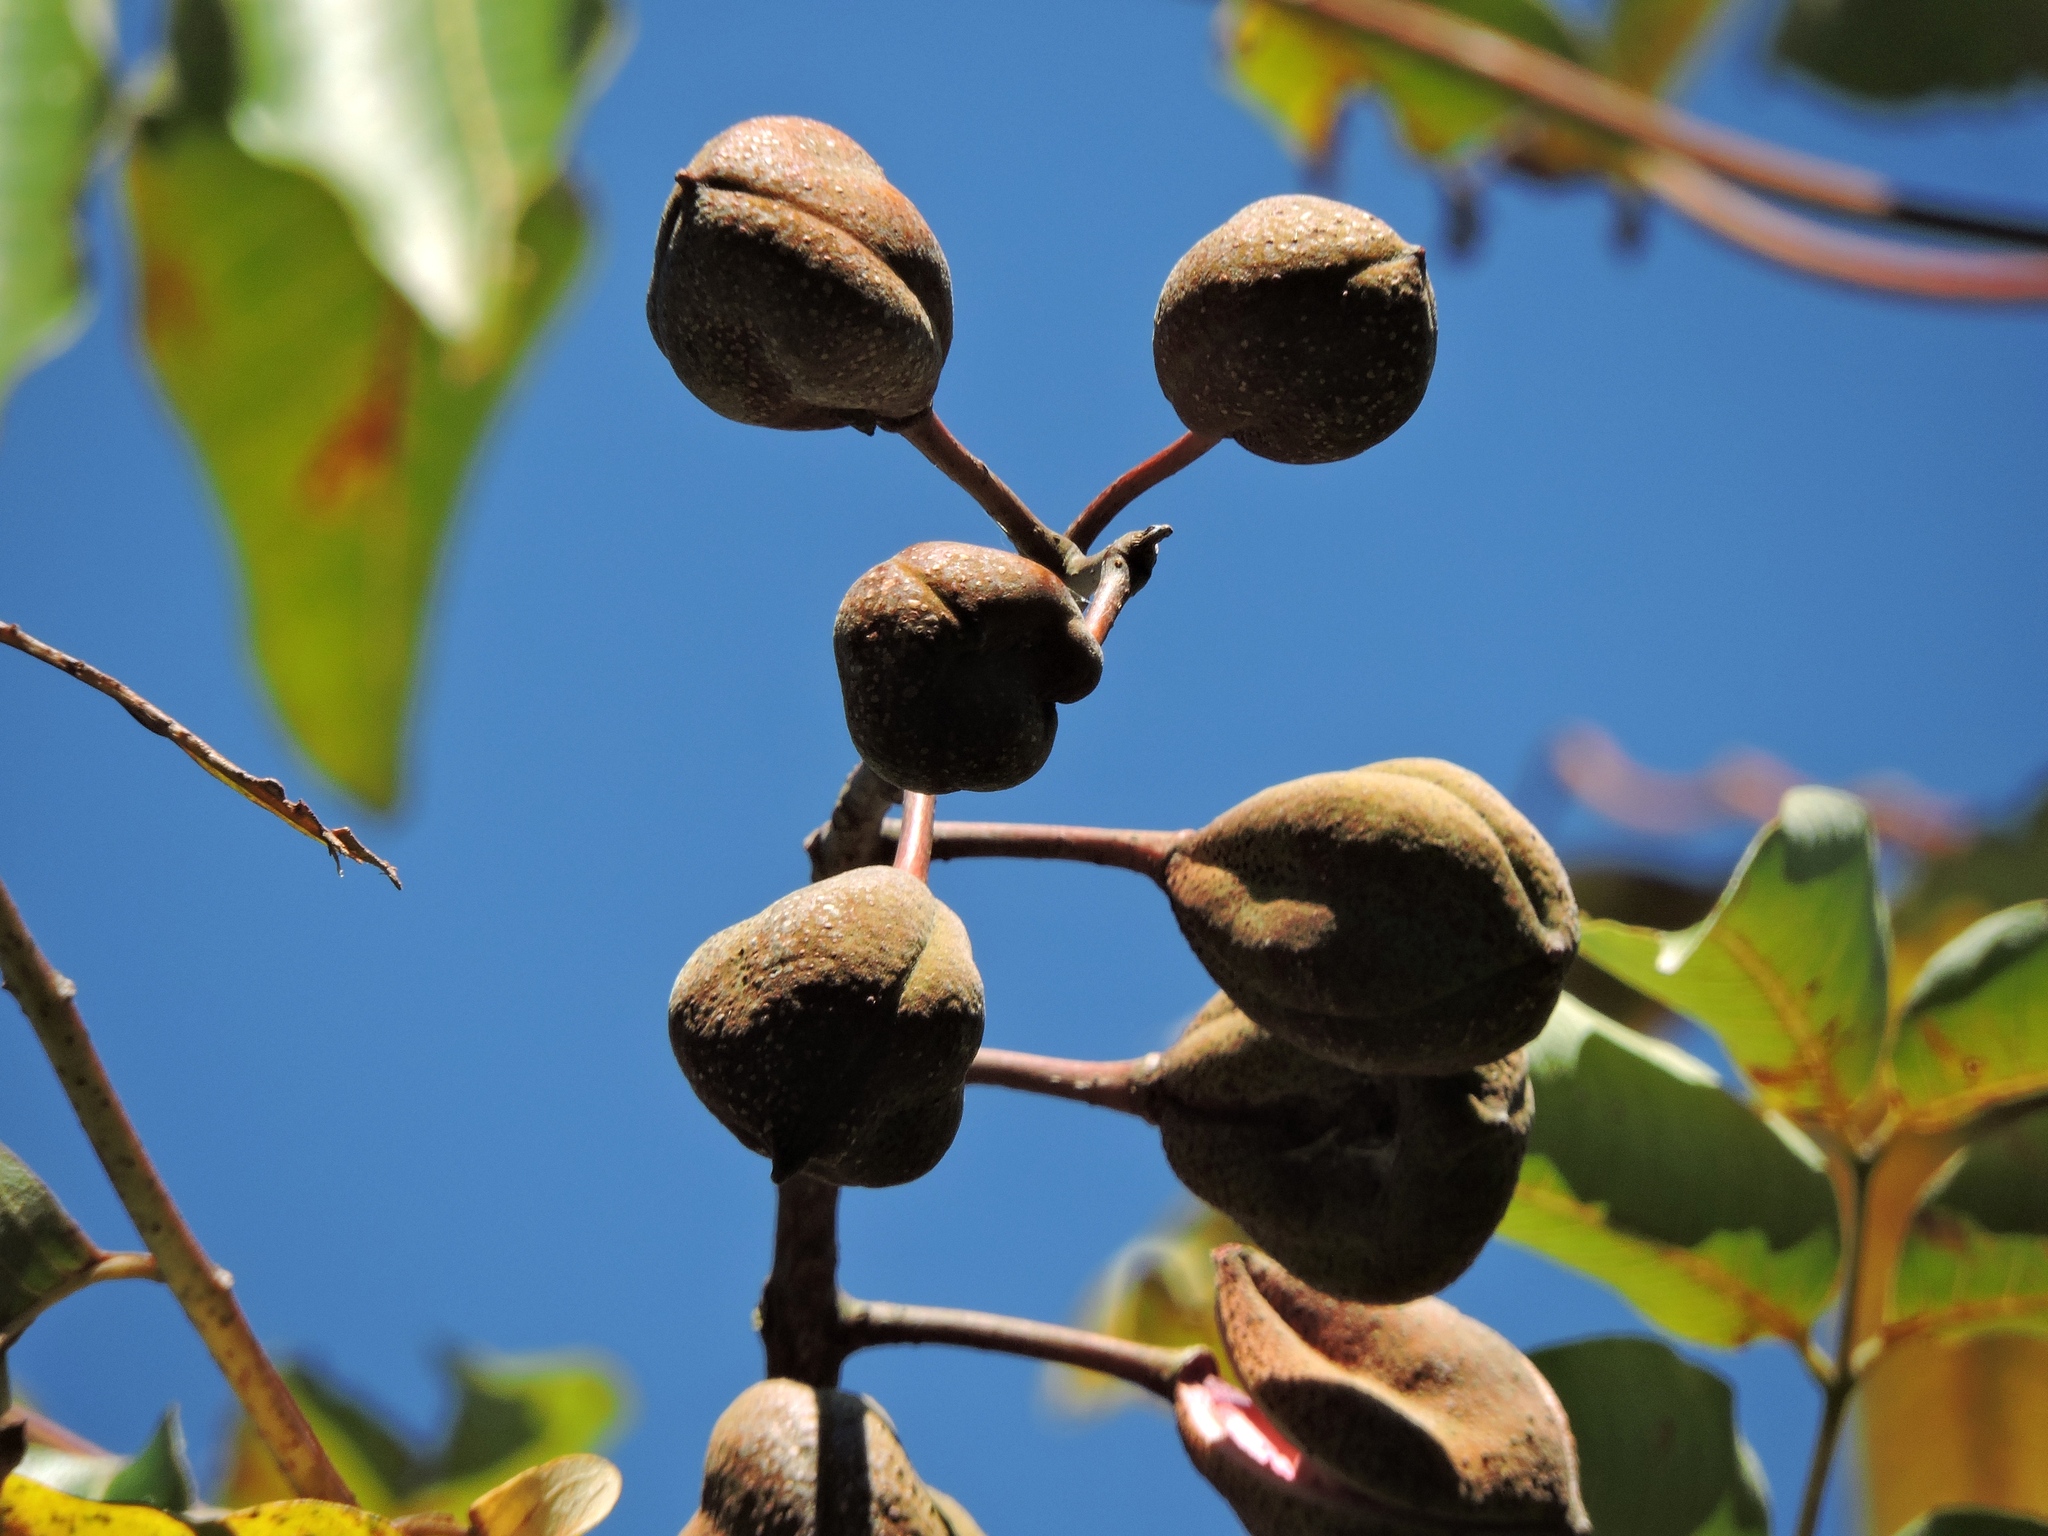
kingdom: Plantae
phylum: Tracheophyta
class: Magnoliopsida
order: Brassicales
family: Akaniaceae
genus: Bretschneidera
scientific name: Bretschneidera sinensis
